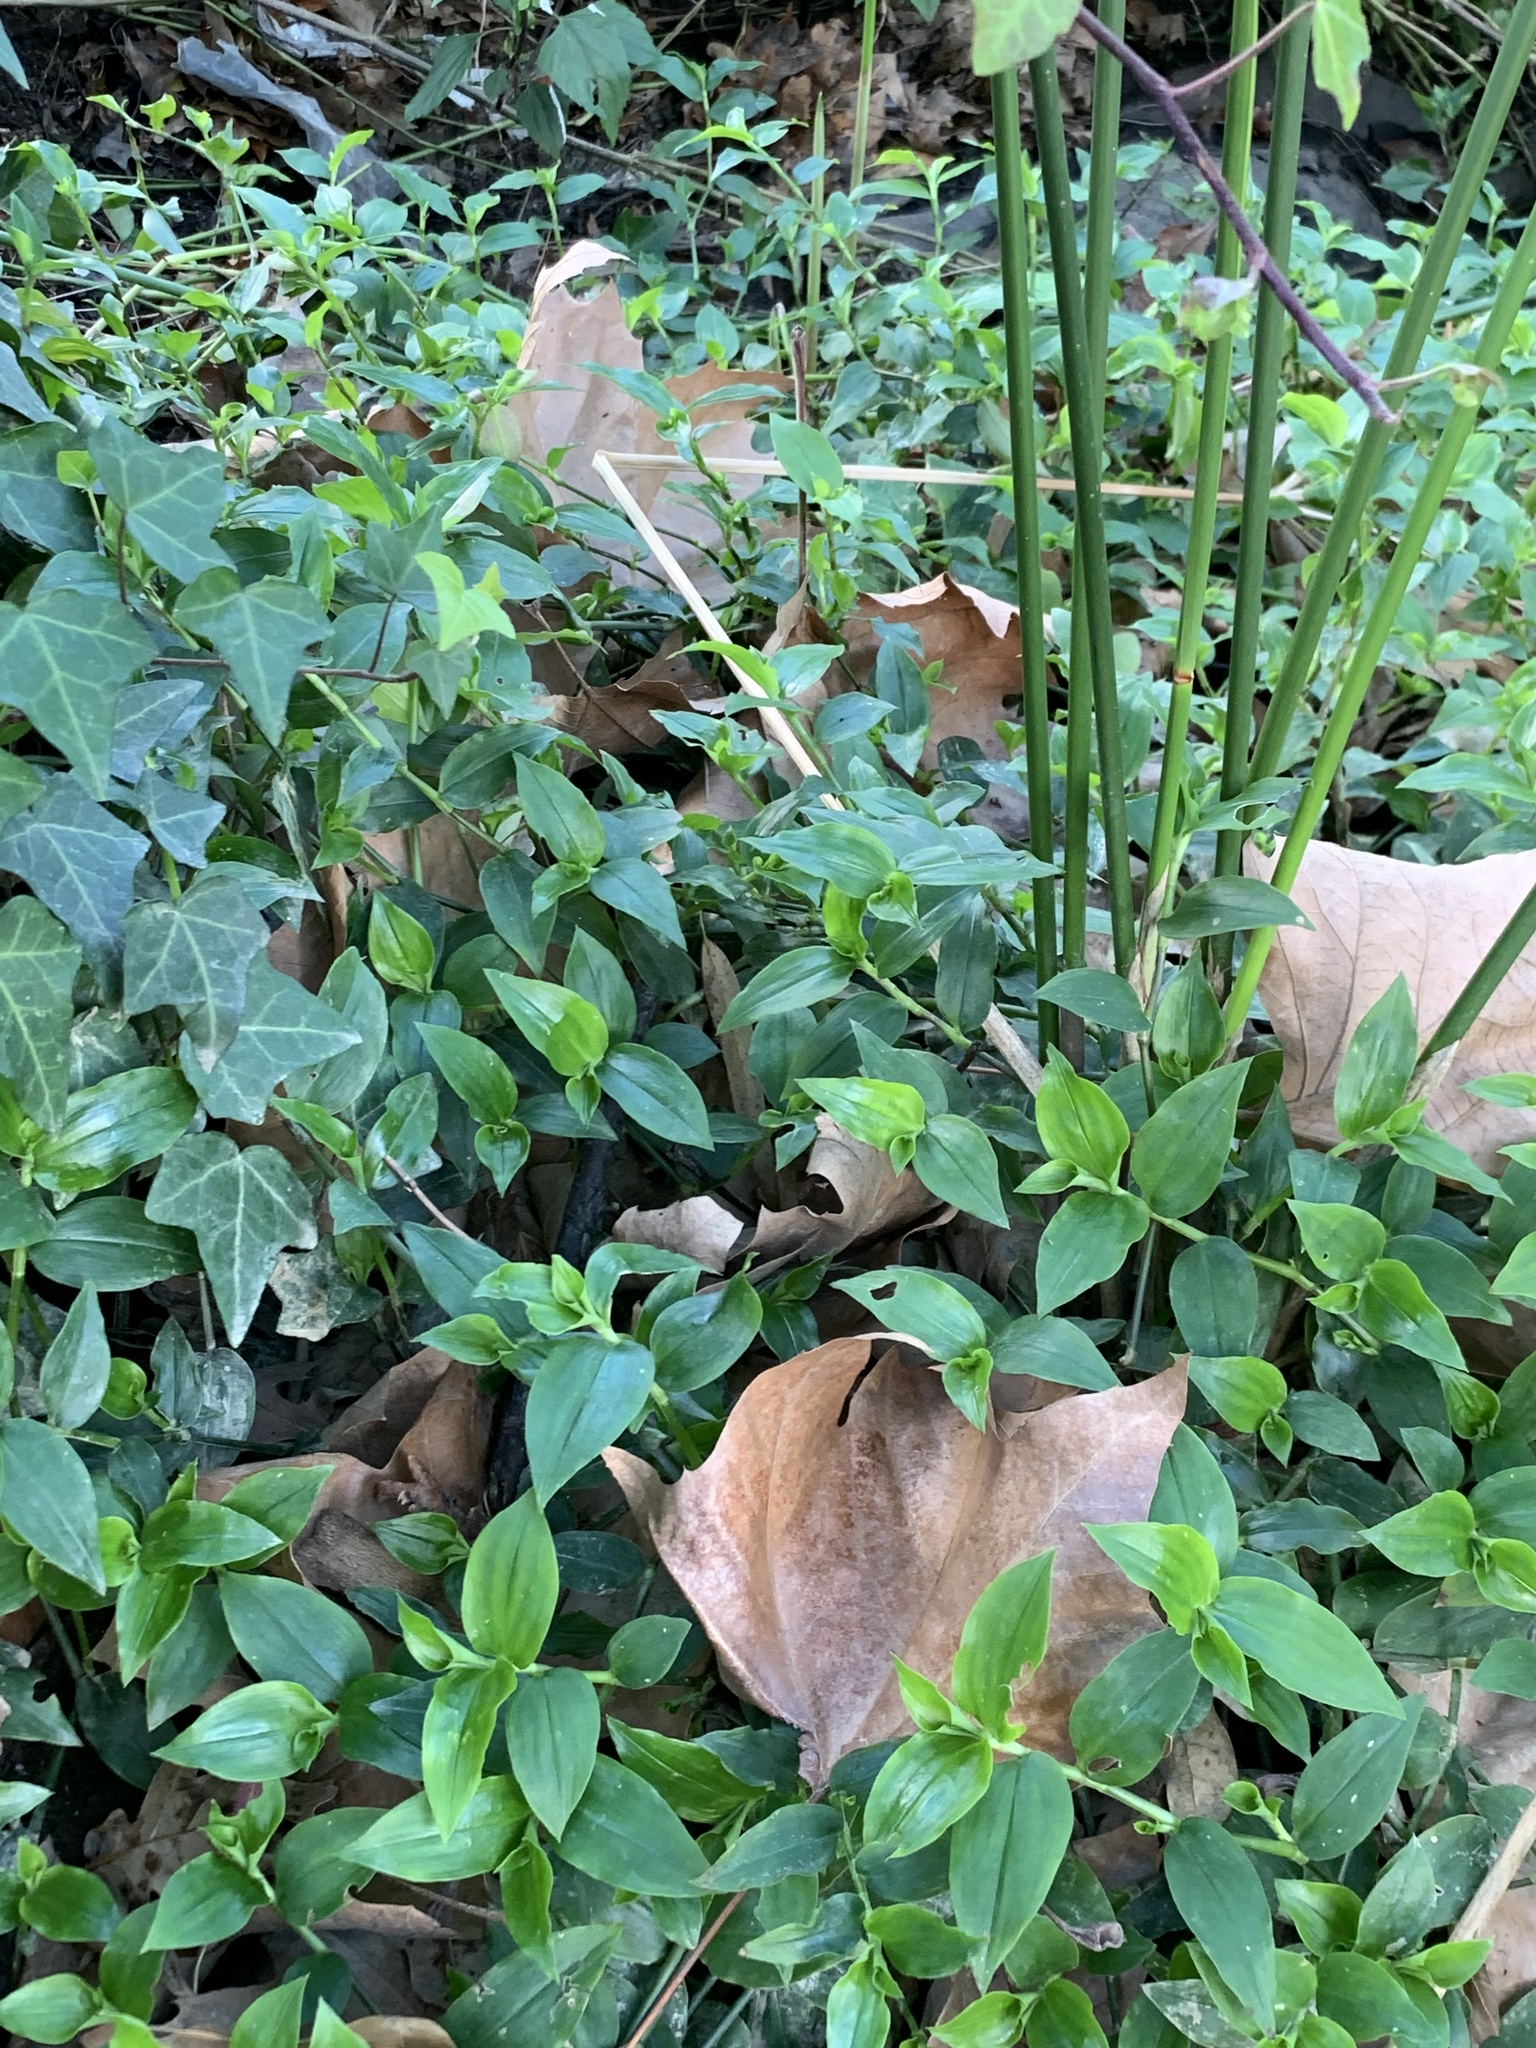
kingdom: Plantae
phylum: Tracheophyta
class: Liliopsida
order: Commelinales
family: Commelinaceae
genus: Tradescantia
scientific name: Tradescantia fluminensis
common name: Wandering-jew
